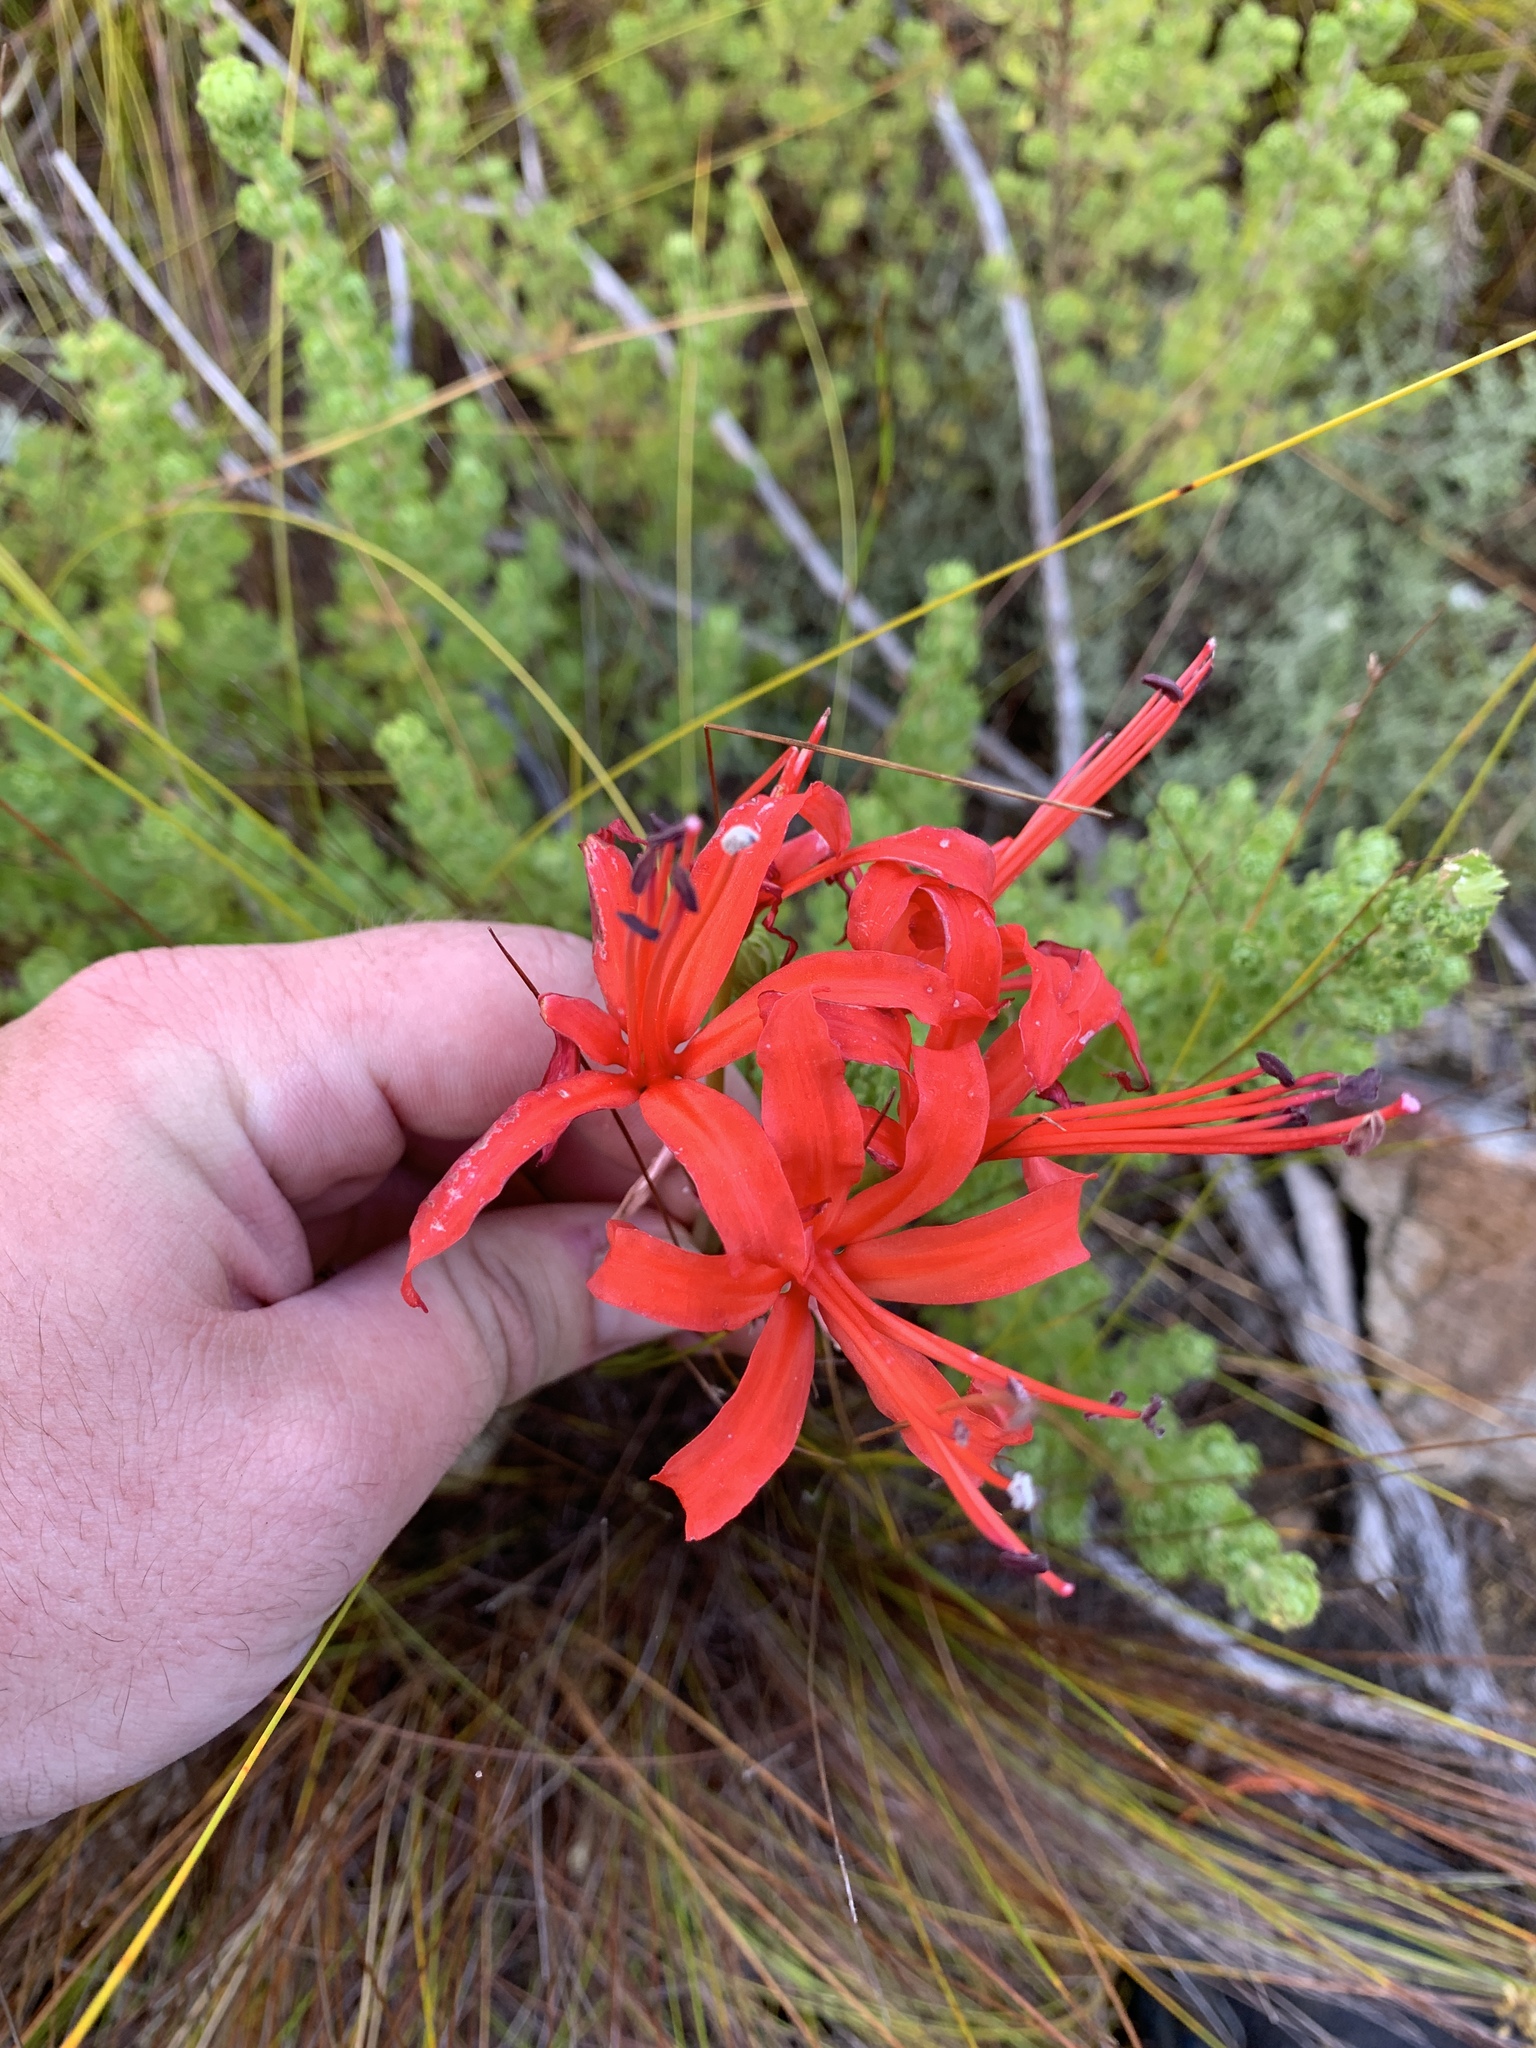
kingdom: Plantae
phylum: Tracheophyta
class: Liliopsida
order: Asparagales
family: Amaryllidaceae
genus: Nerine
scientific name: Nerine sarniensis
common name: Guernsey-lily
